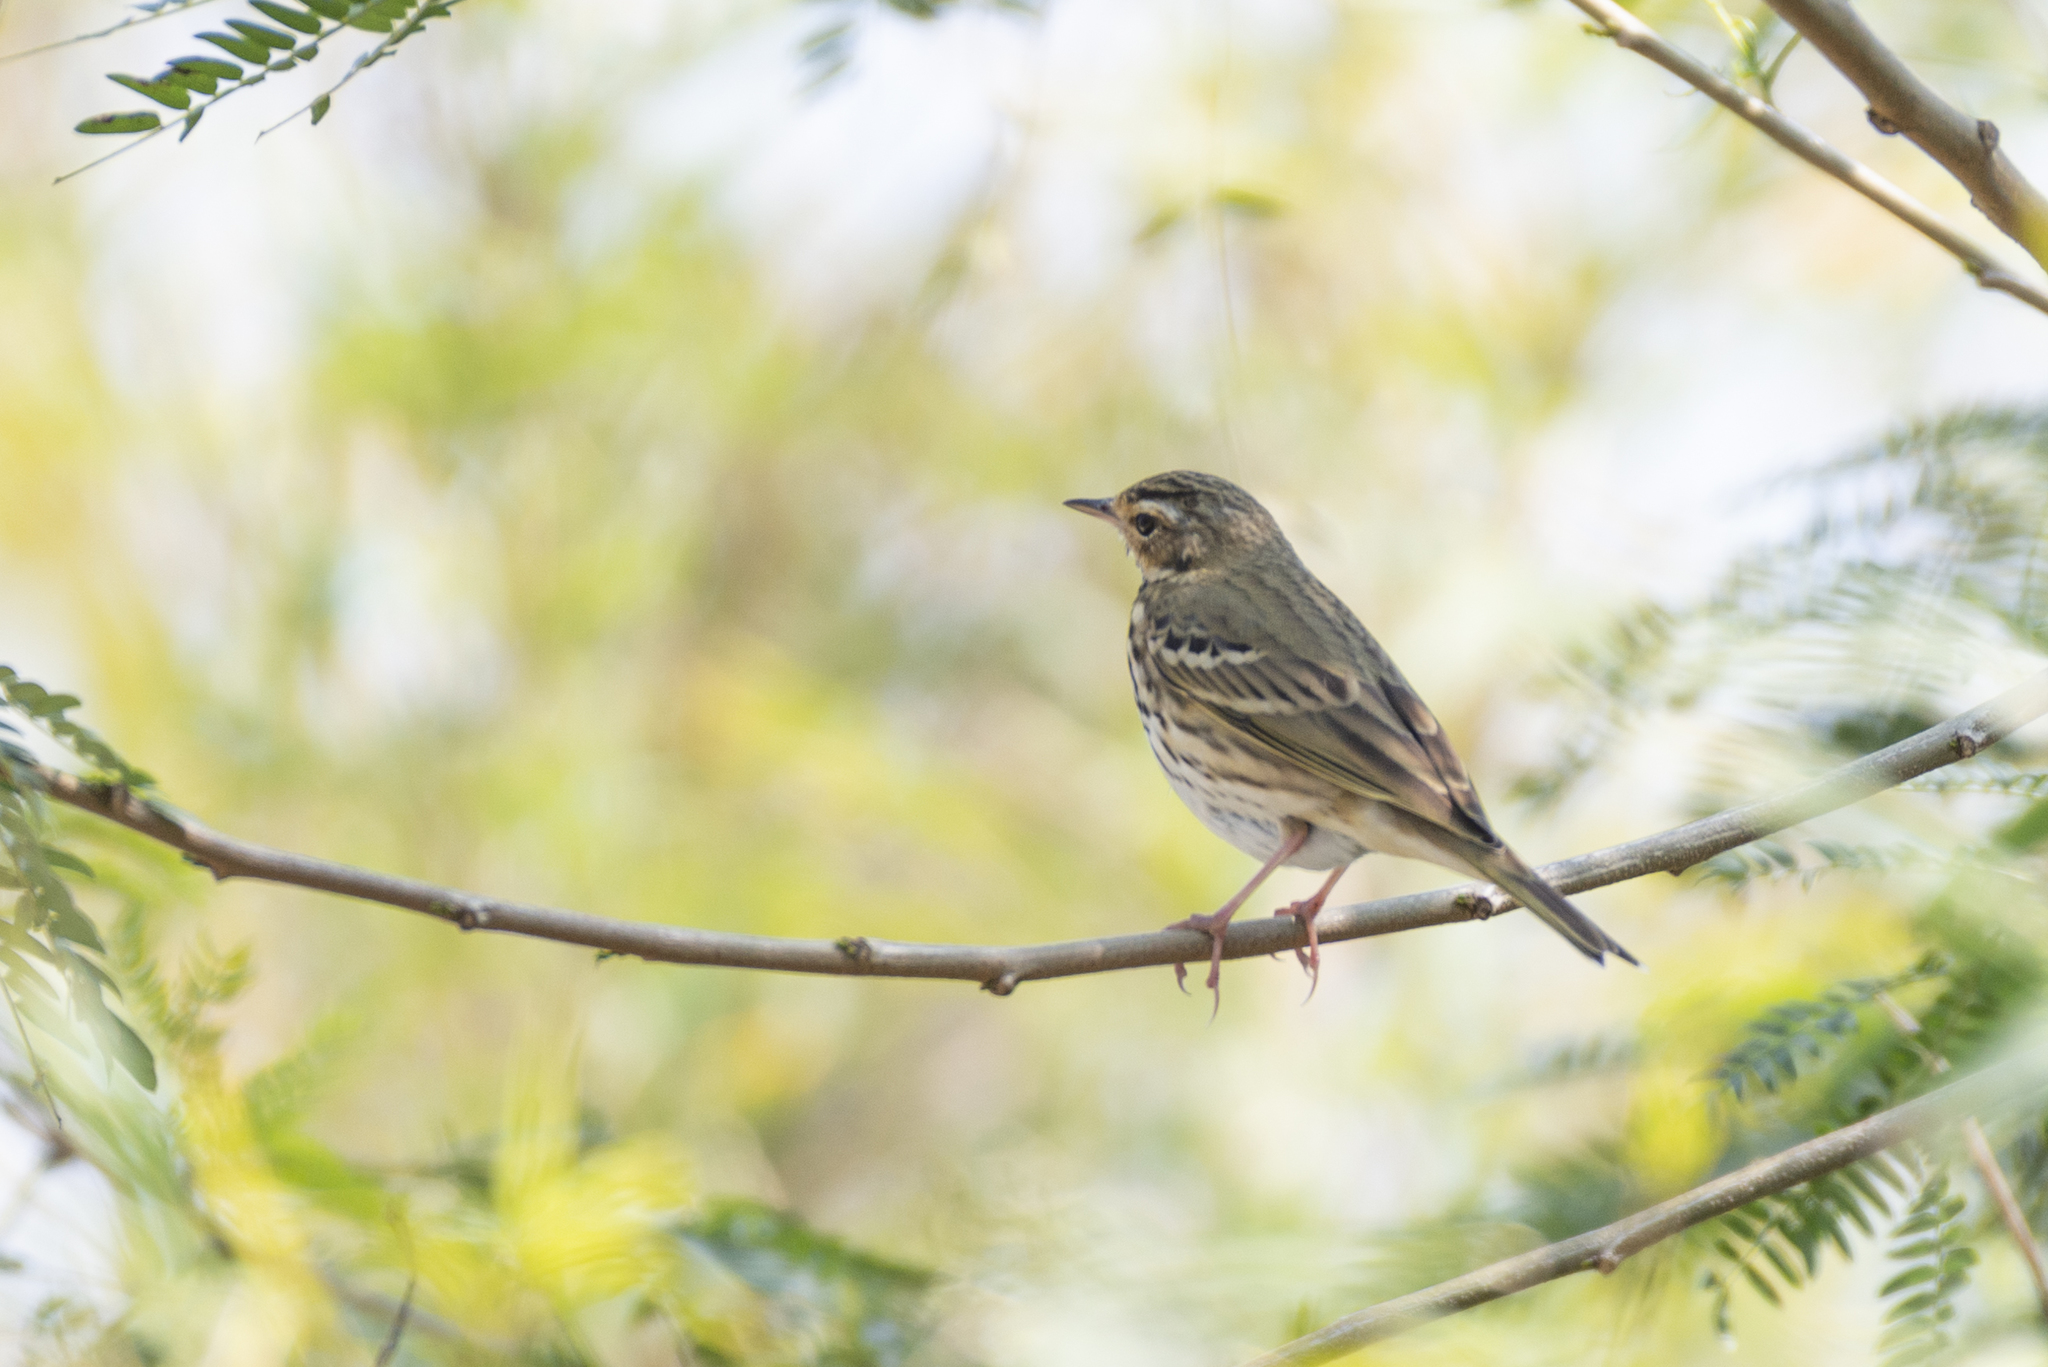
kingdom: Animalia
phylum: Chordata
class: Aves
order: Passeriformes
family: Motacillidae
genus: Anthus
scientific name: Anthus hodgsoni
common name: Olive-backed pipit
